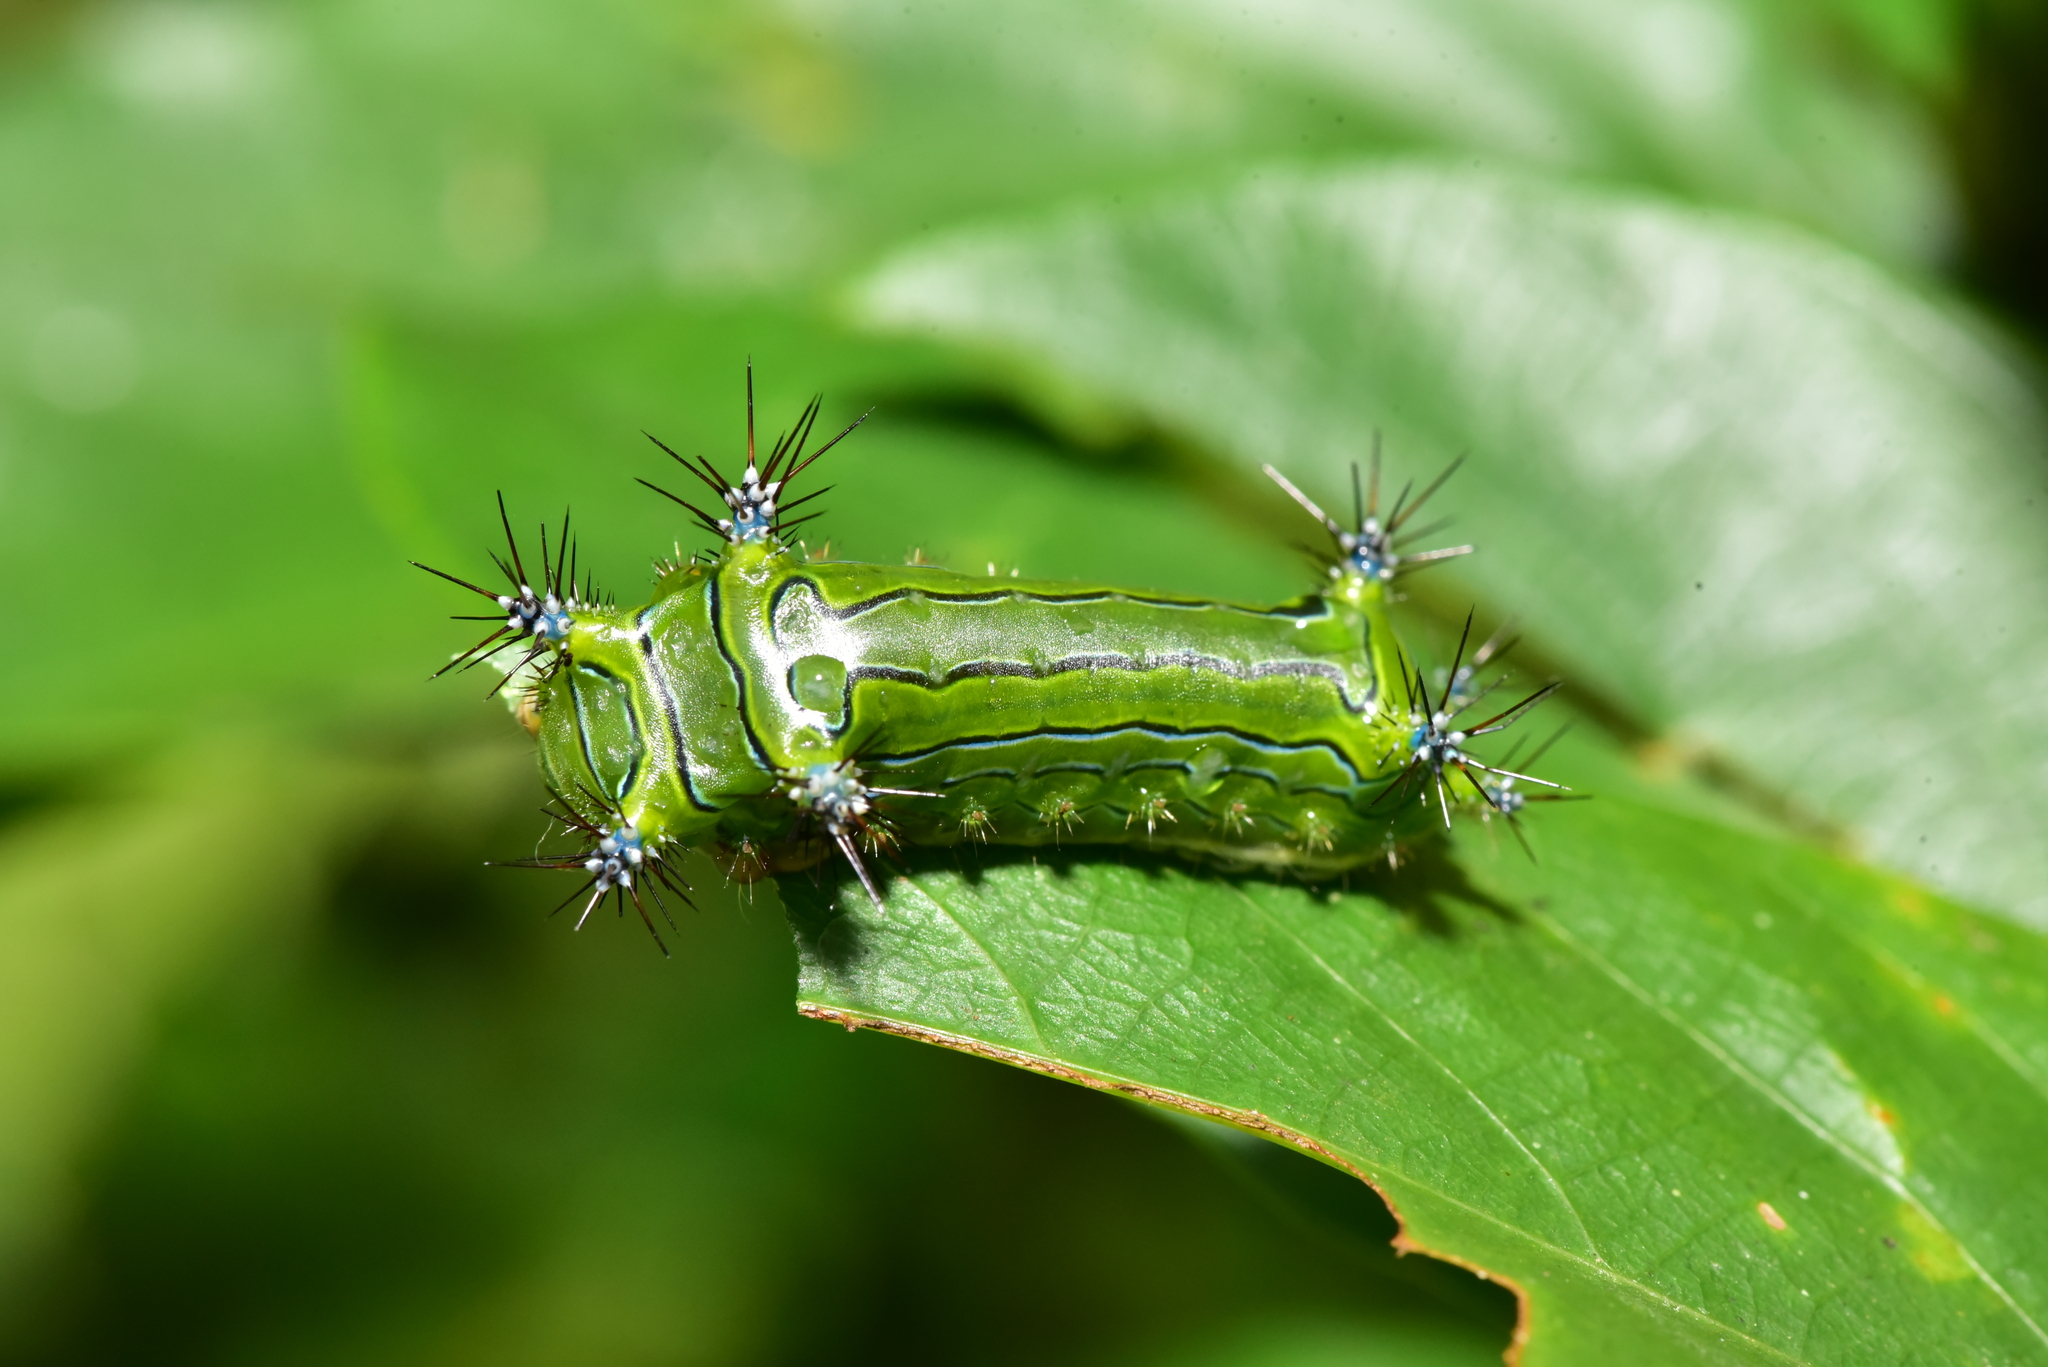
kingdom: Animalia
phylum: Arthropoda
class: Insecta
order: Lepidoptera
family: Limacodidae
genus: Miresa
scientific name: Miresa fulgida
